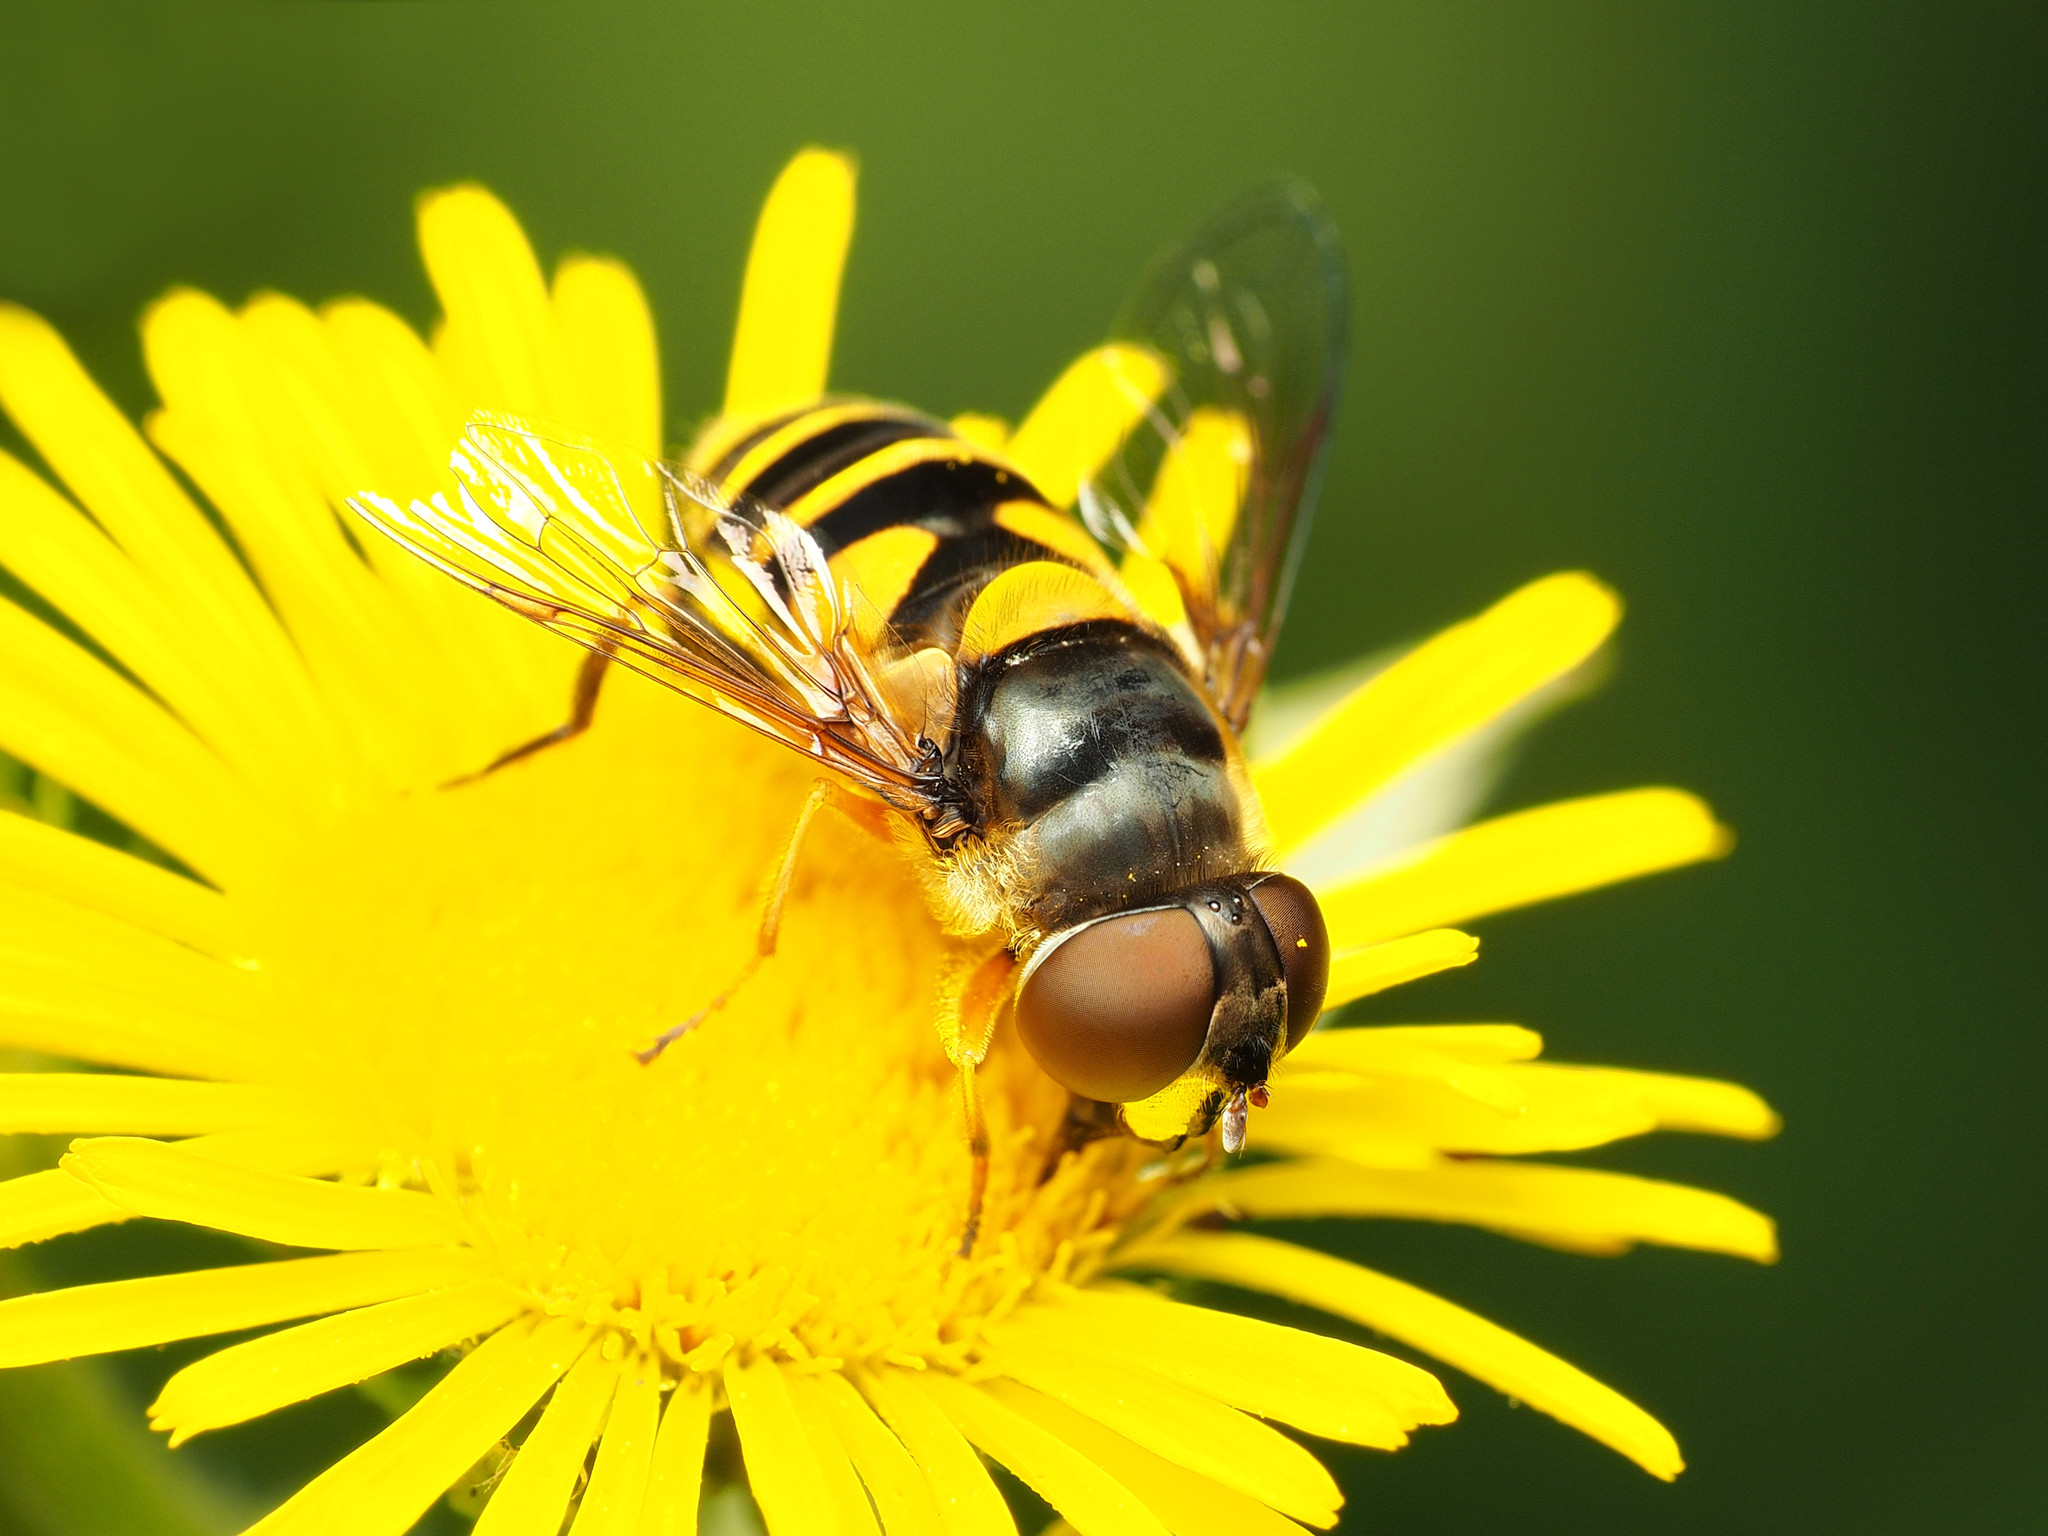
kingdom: Animalia
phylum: Arthropoda
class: Insecta
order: Diptera
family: Syrphidae
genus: Eristalis
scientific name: Eristalis transversa
